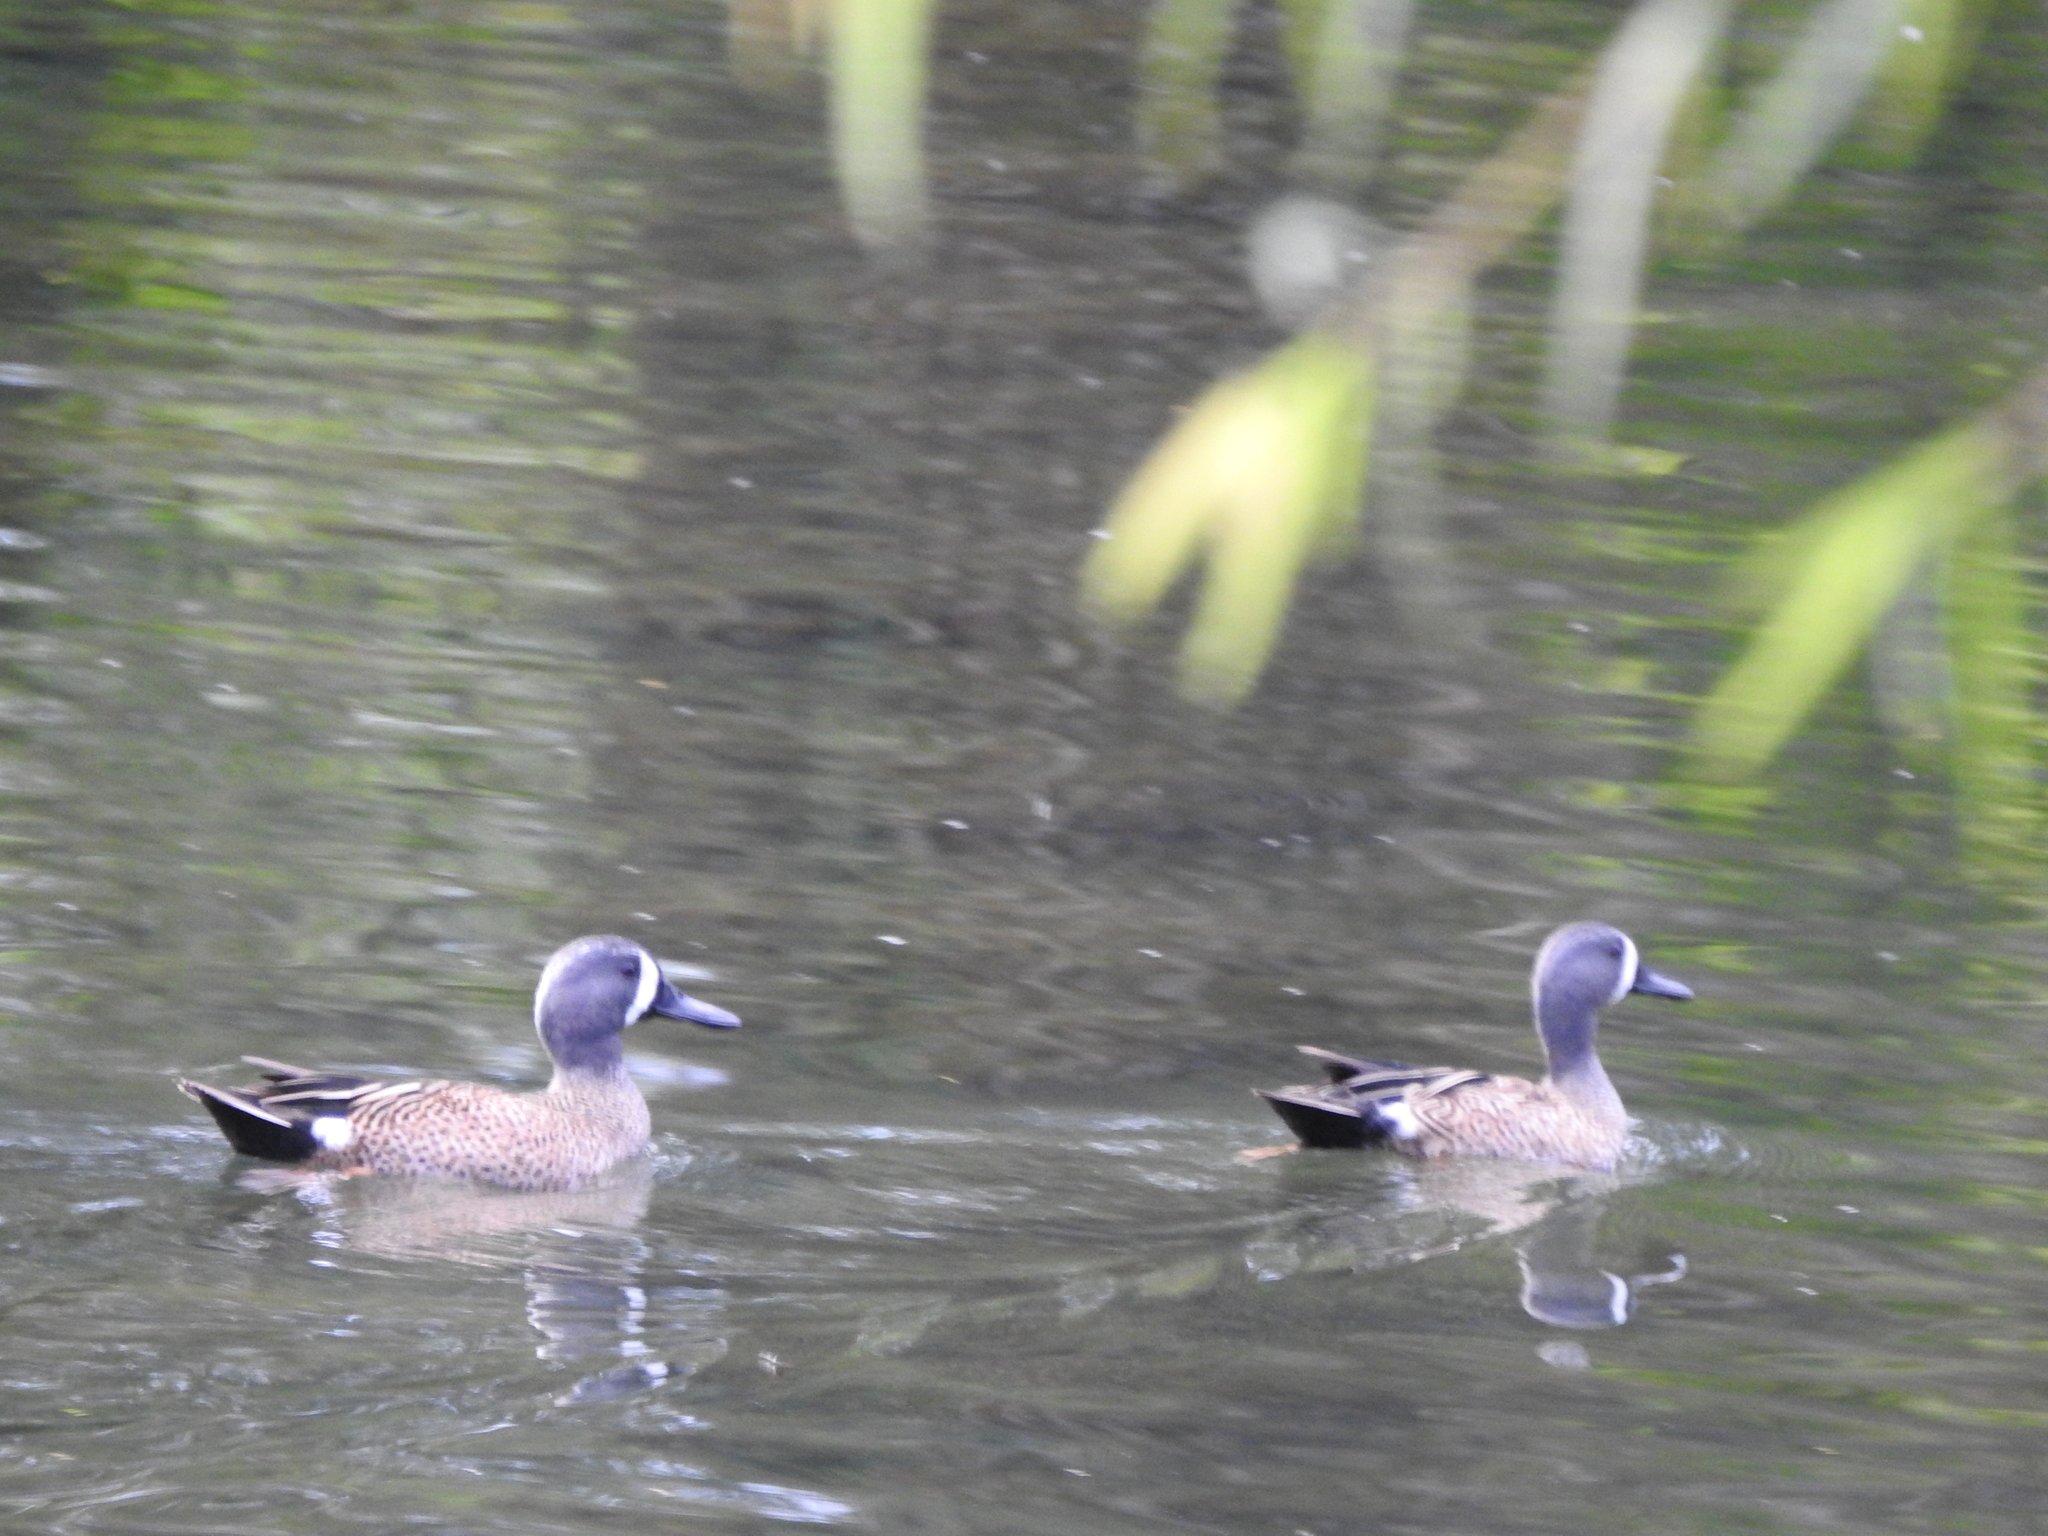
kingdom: Animalia
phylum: Chordata
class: Aves
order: Anseriformes
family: Anatidae
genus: Spatula
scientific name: Spatula discors
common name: Blue-winged teal
